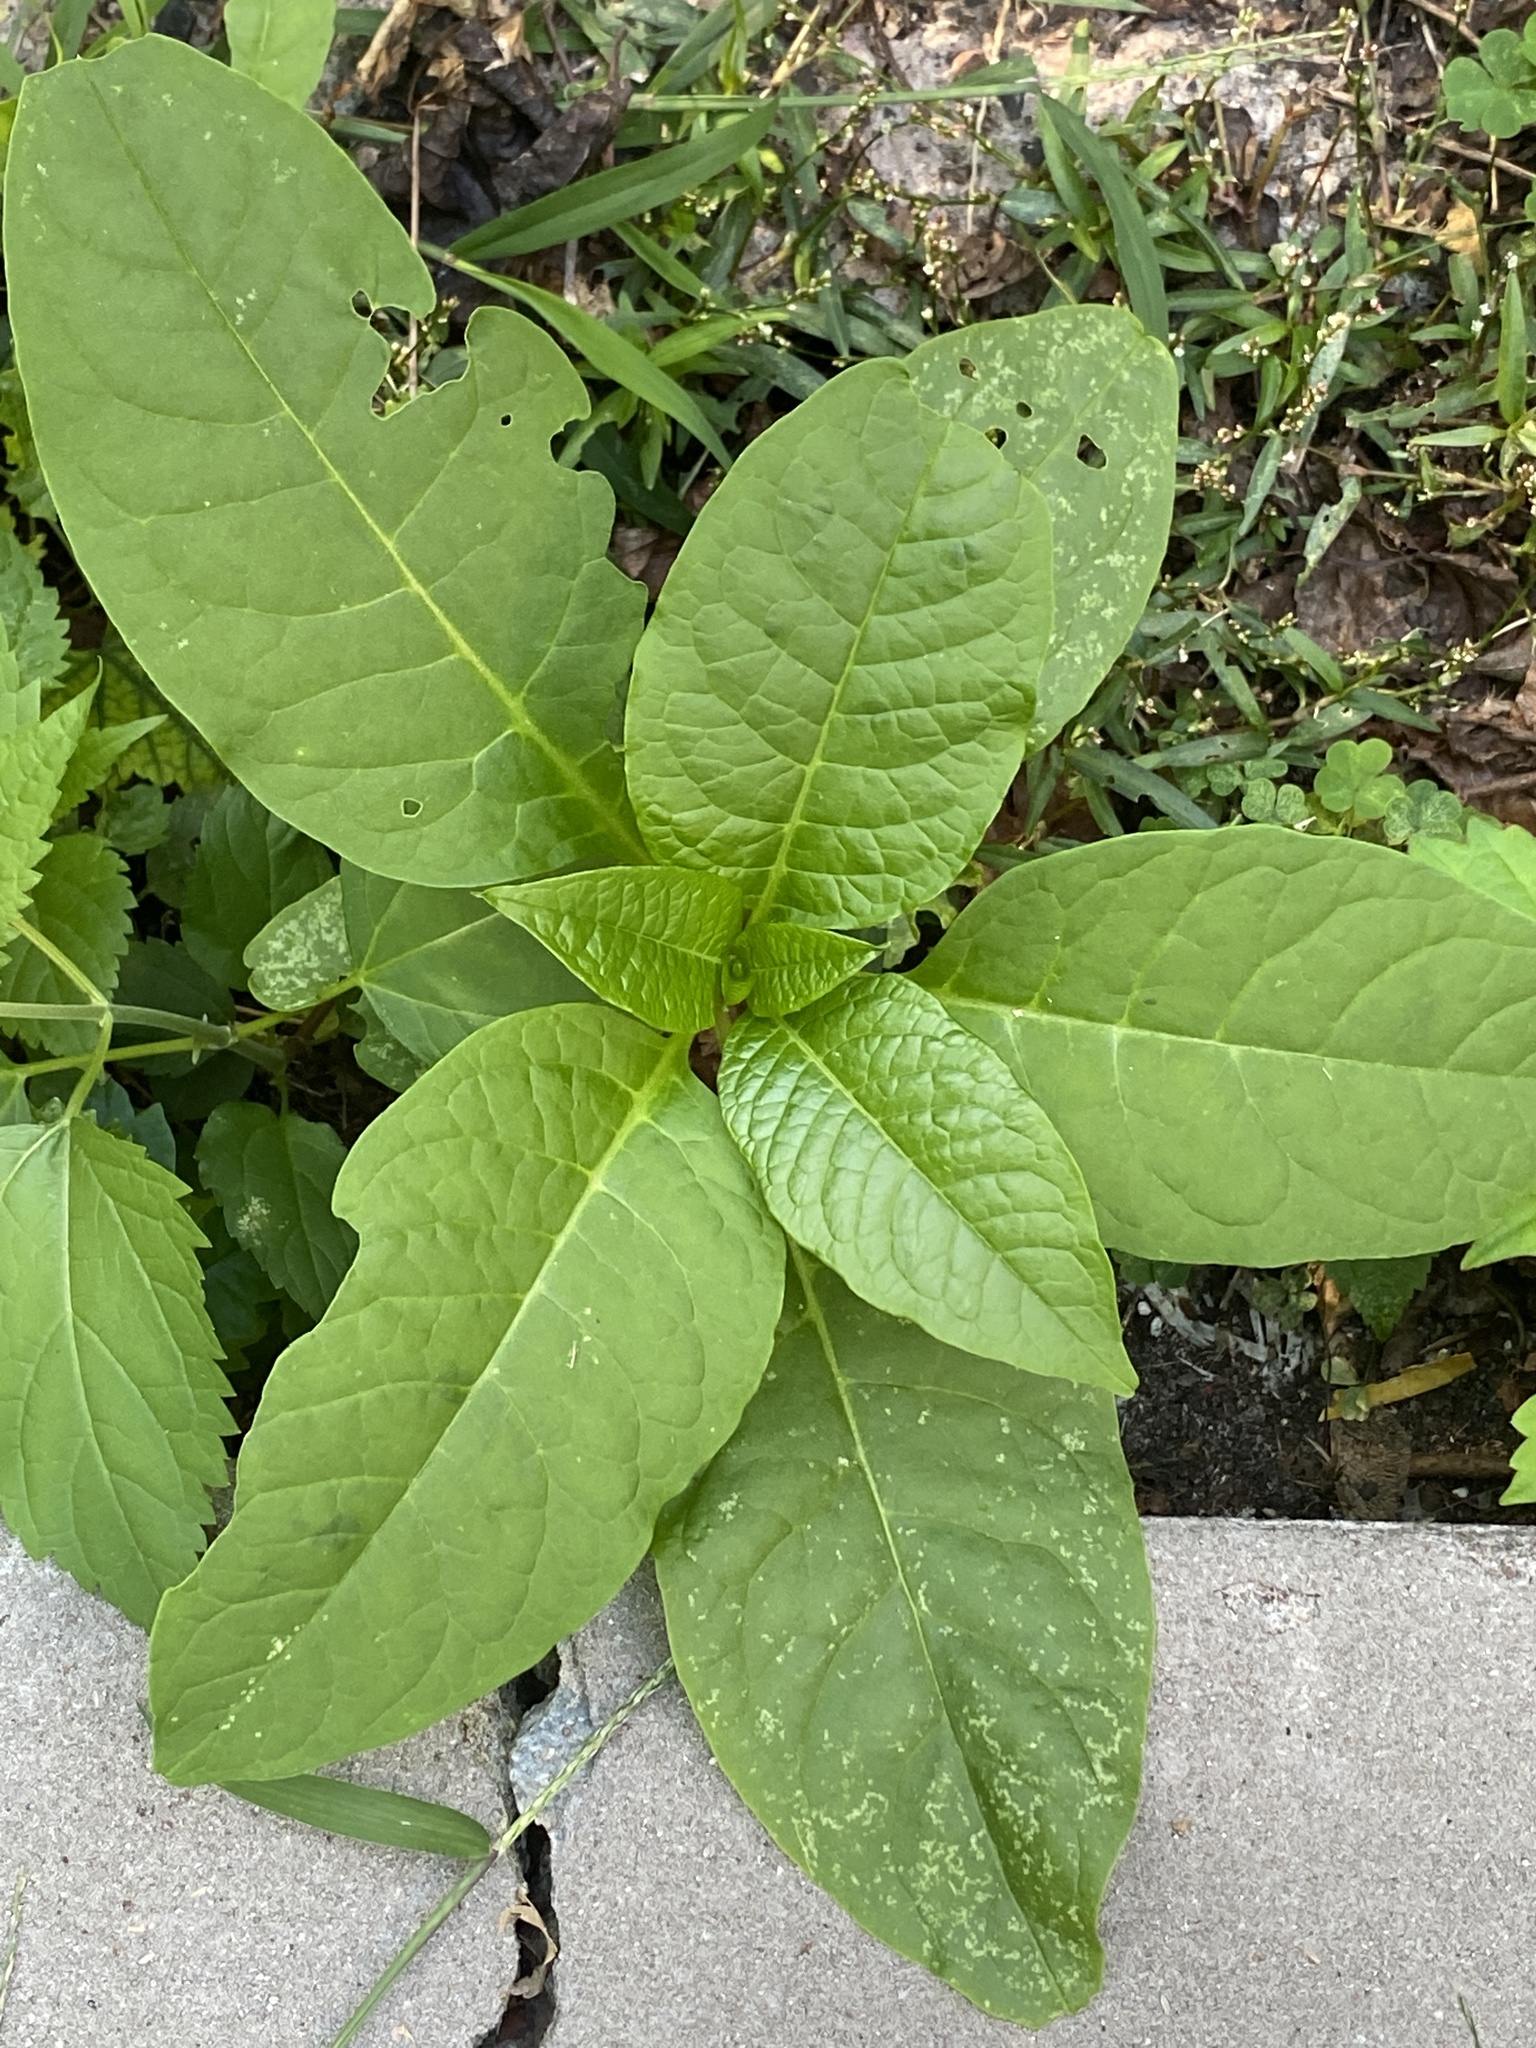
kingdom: Plantae
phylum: Tracheophyta
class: Magnoliopsida
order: Caryophyllales
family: Phytolaccaceae
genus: Phytolacca
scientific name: Phytolacca americana
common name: American pokeweed
